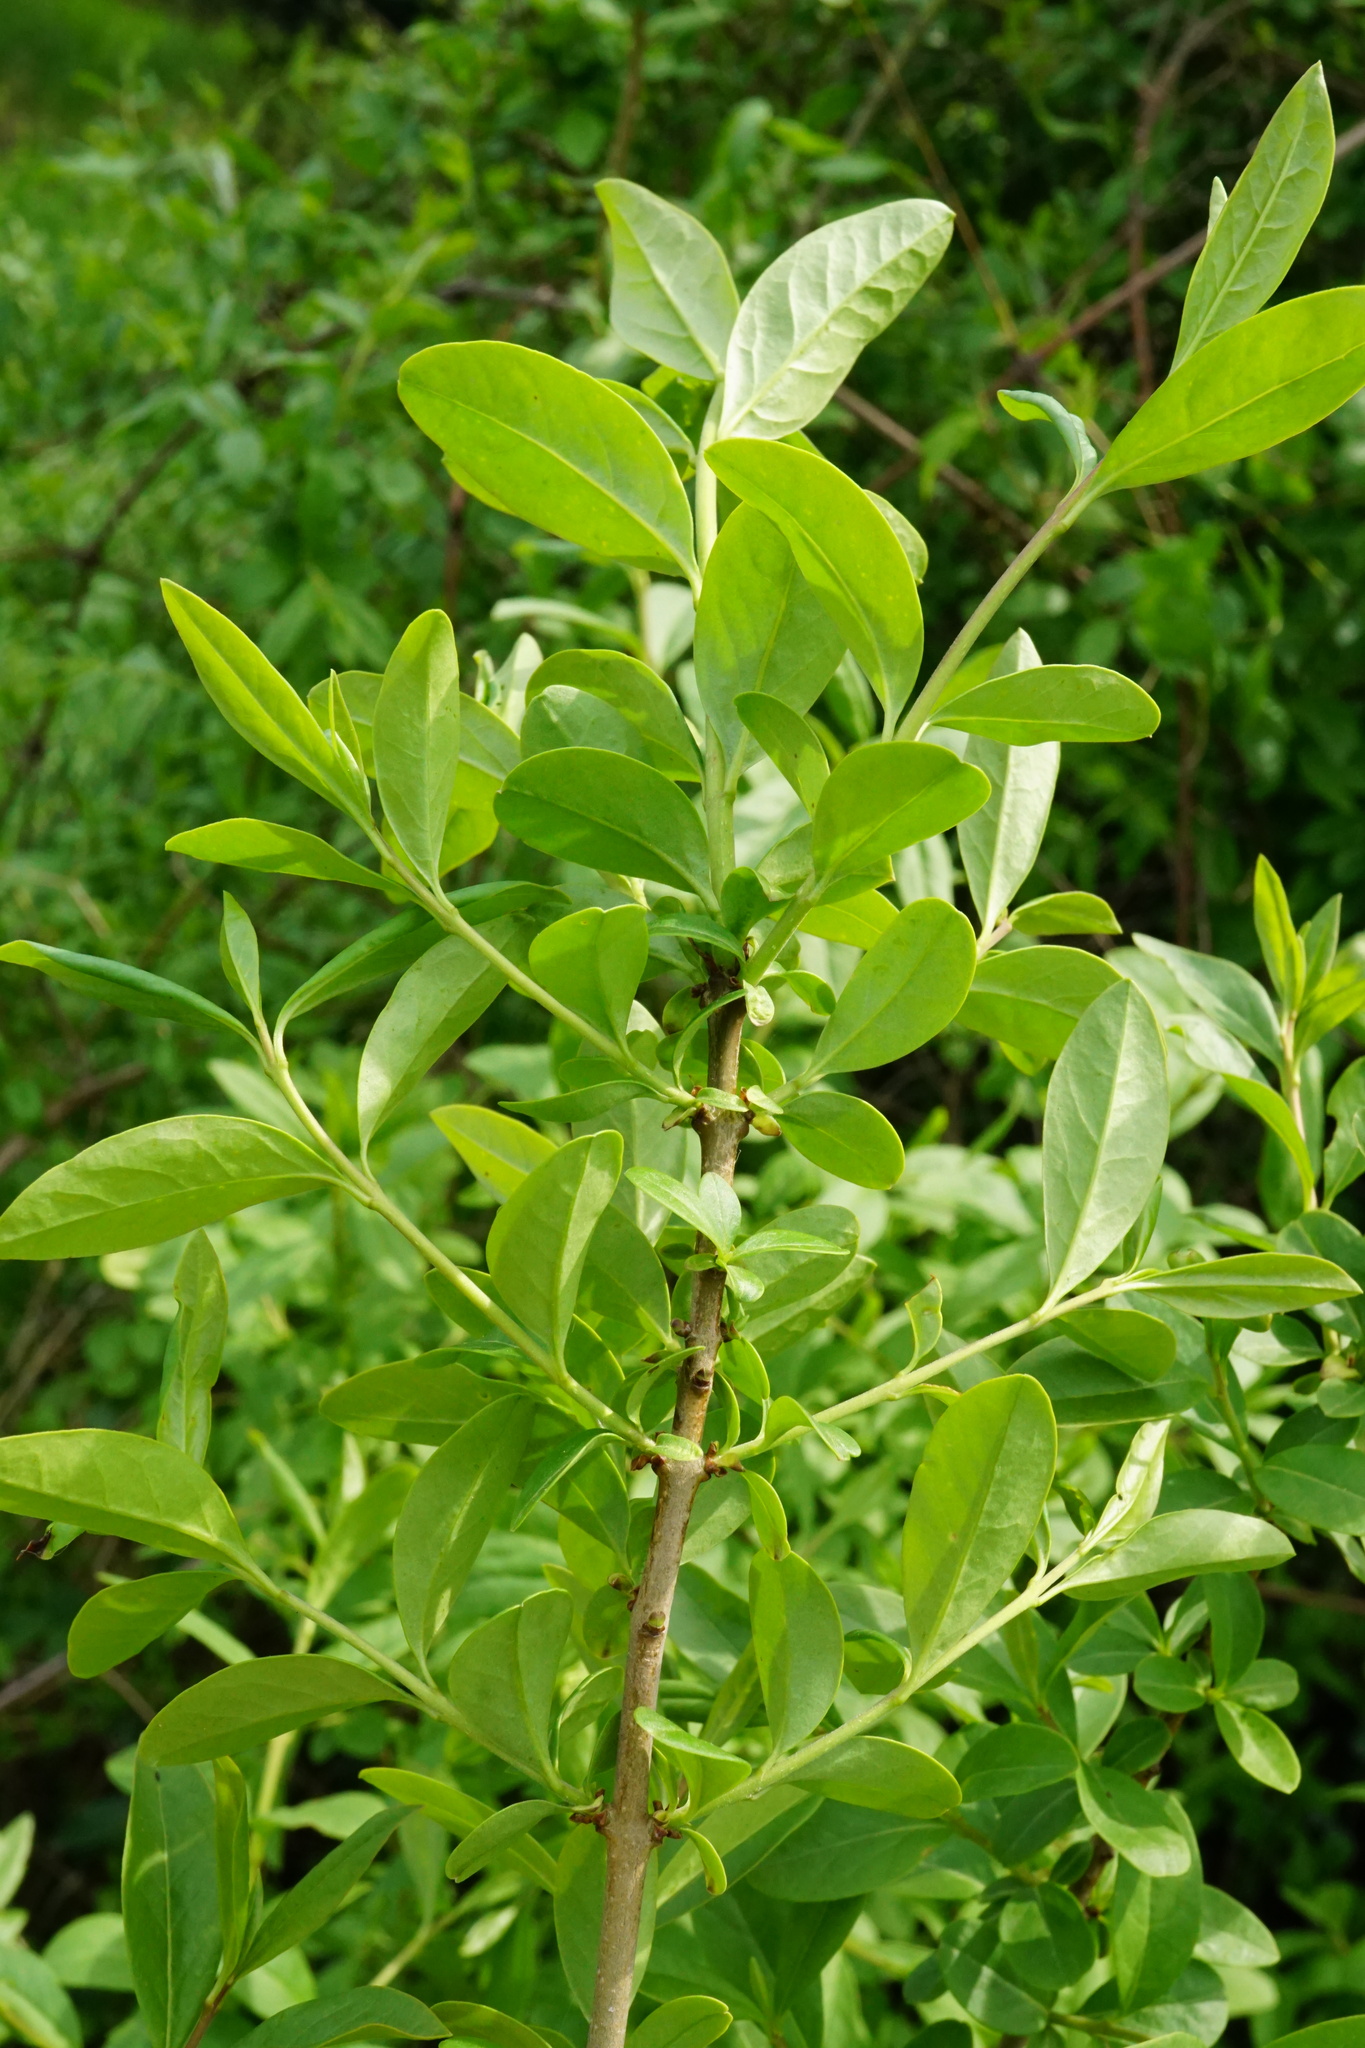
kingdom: Plantae
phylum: Tracheophyta
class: Magnoliopsida
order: Lamiales
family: Oleaceae
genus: Ligustrum
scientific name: Ligustrum vulgare
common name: Wild privet
